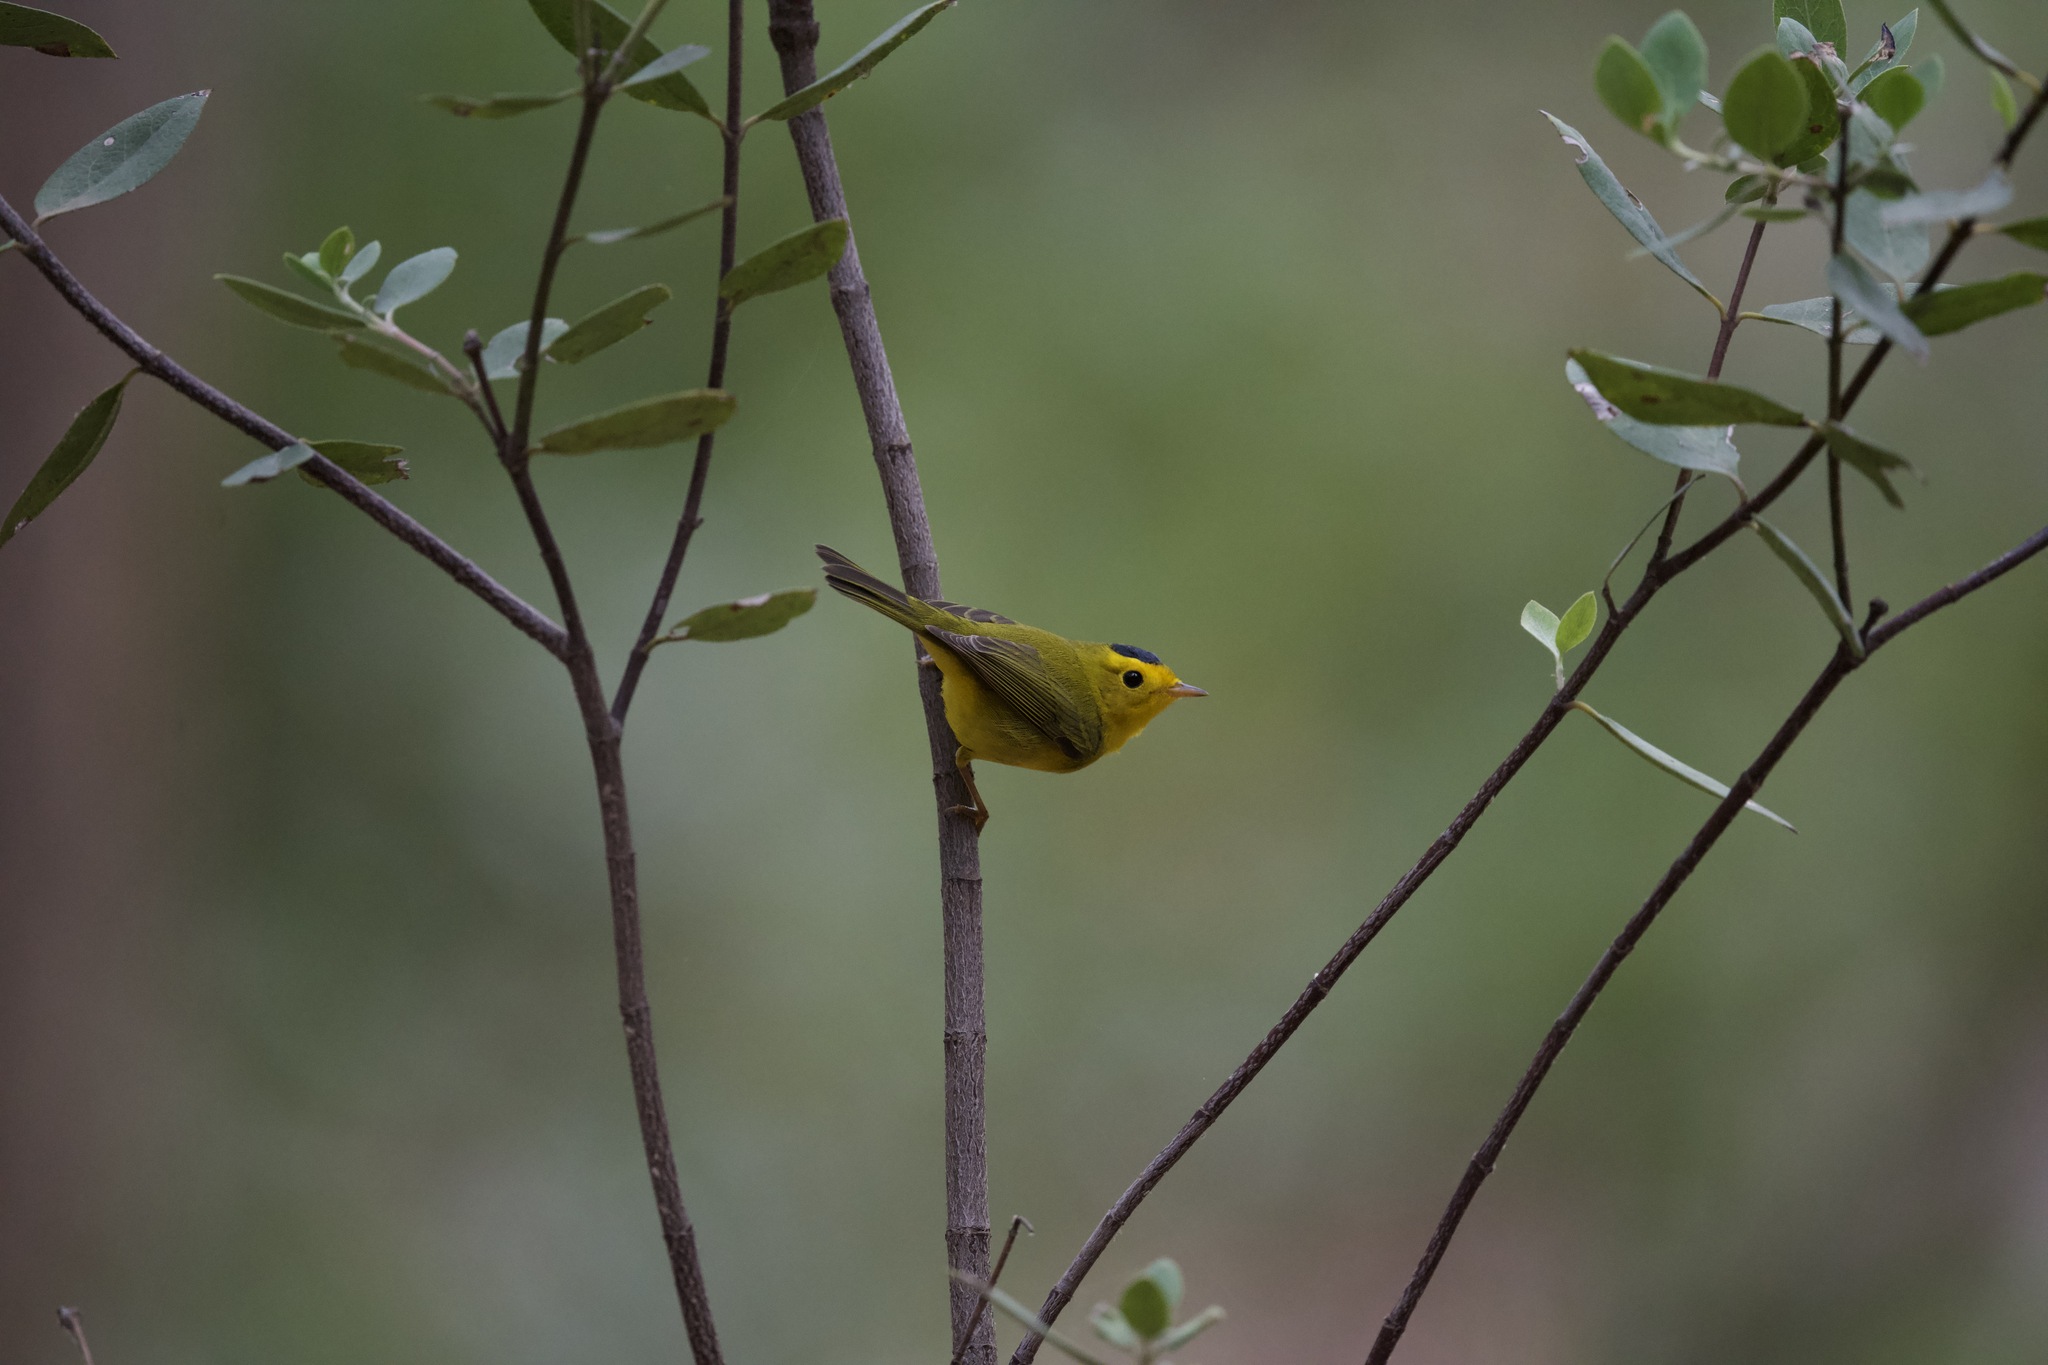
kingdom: Animalia
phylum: Chordata
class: Aves
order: Passeriformes
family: Parulidae
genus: Cardellina
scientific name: Cardellina pusilla
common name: Wilson's warbler
